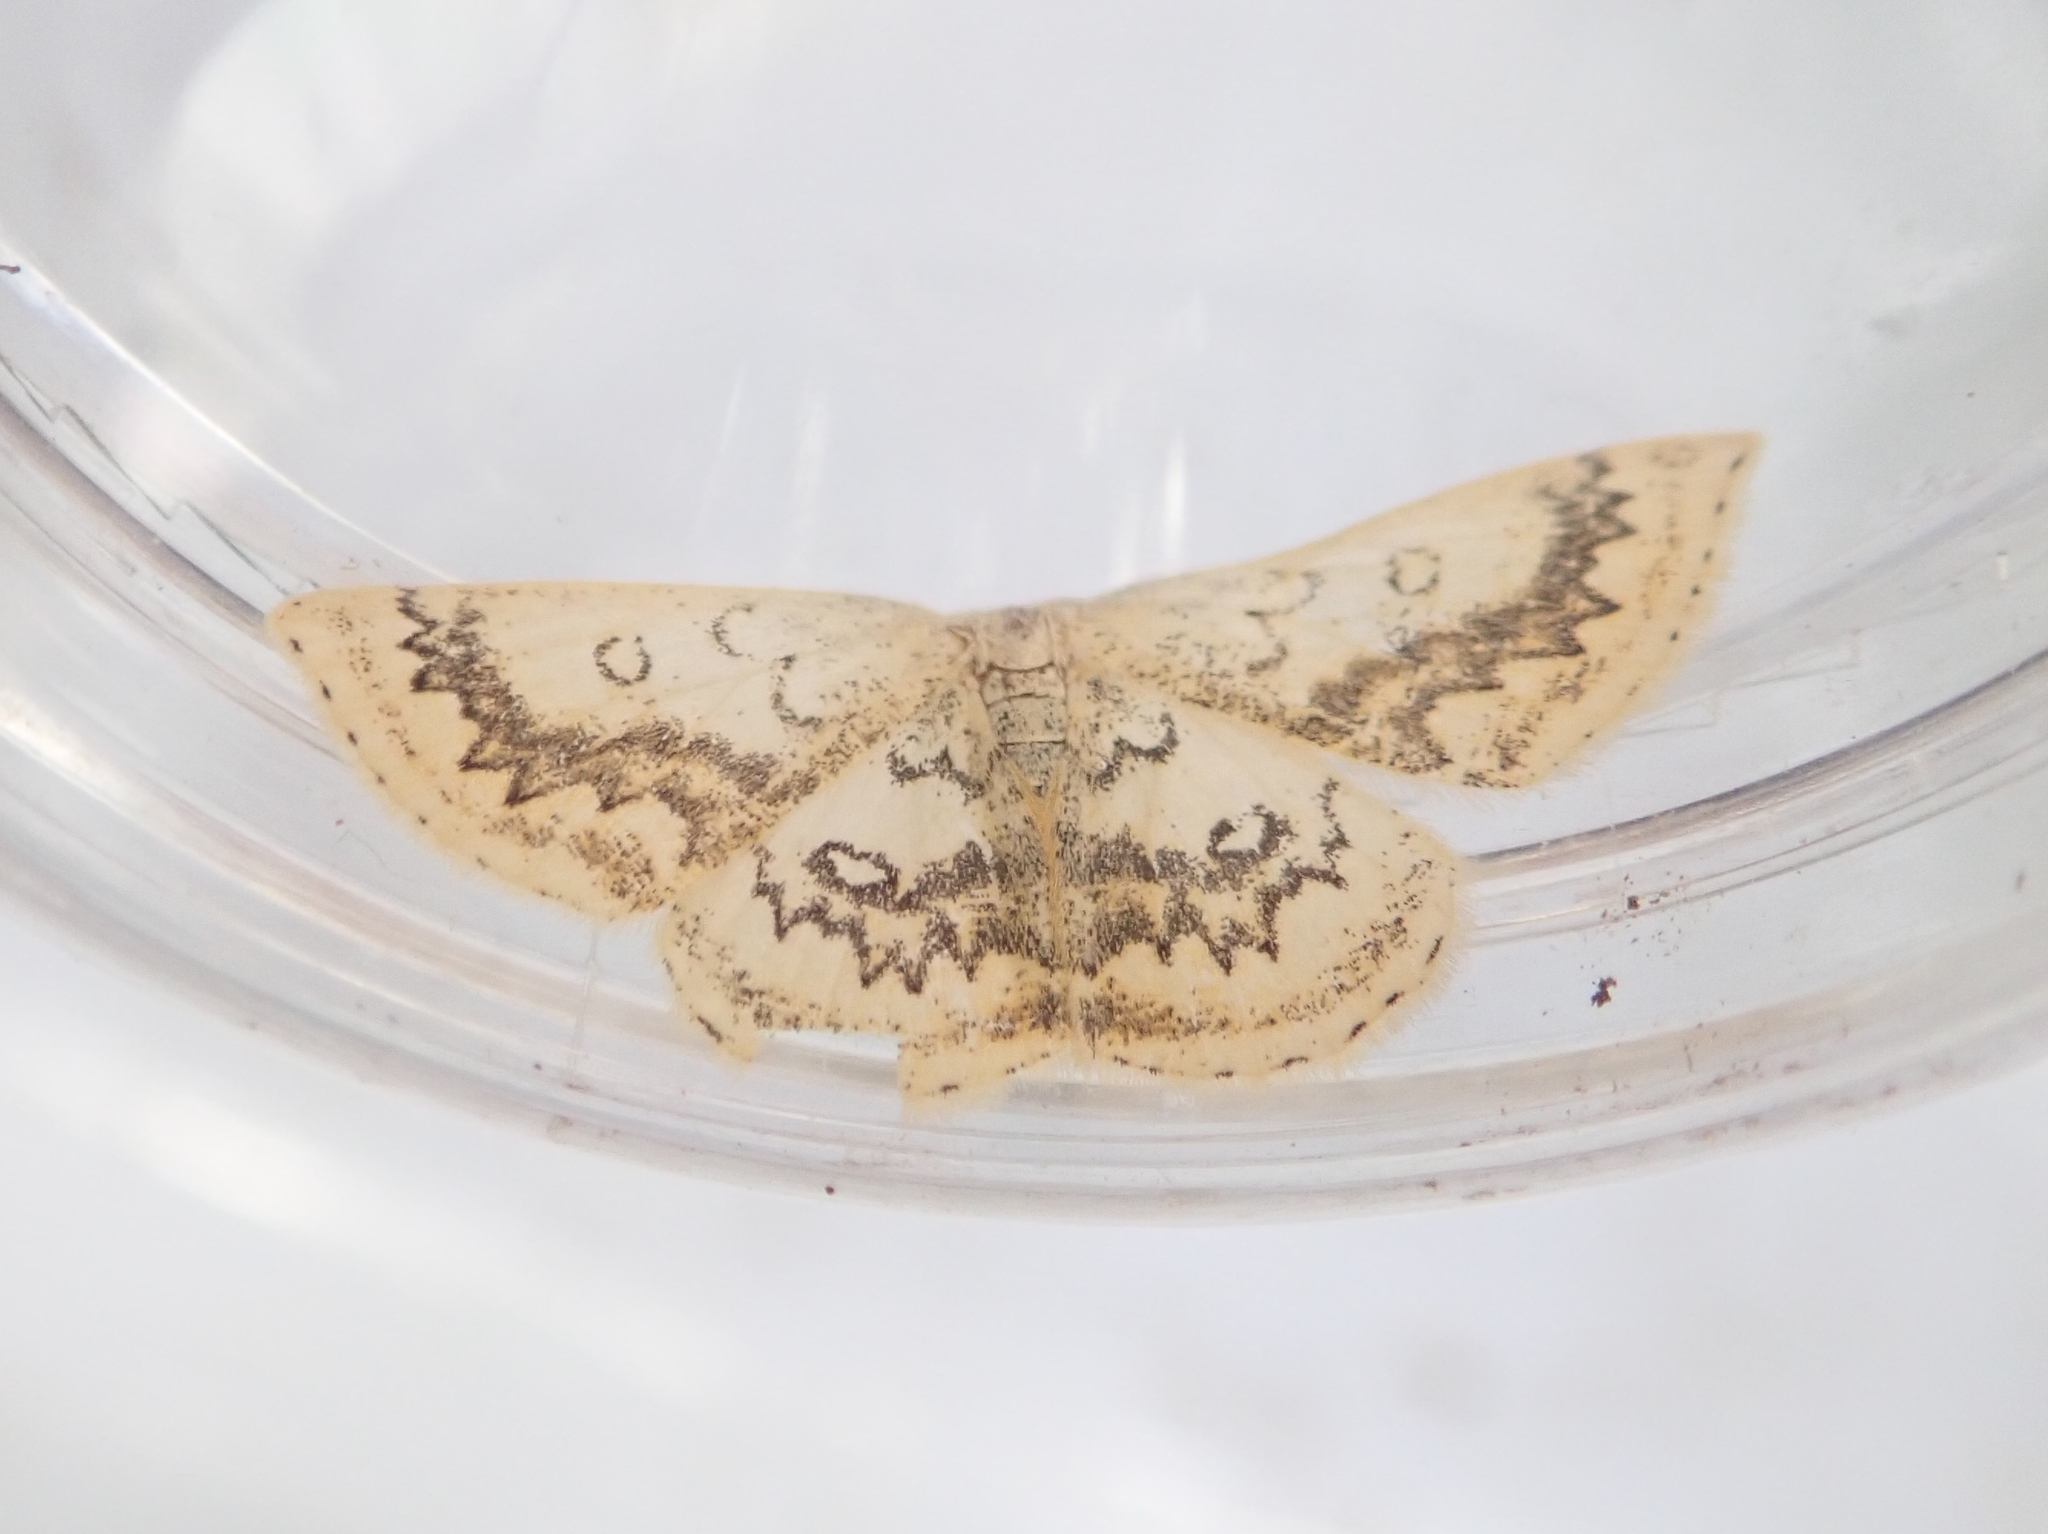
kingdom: Animalia
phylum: Arthropoda
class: Insecta
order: Lepidoptera
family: Geometridae
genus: Cyclophora
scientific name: Cyclophora annularia
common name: Mocha
